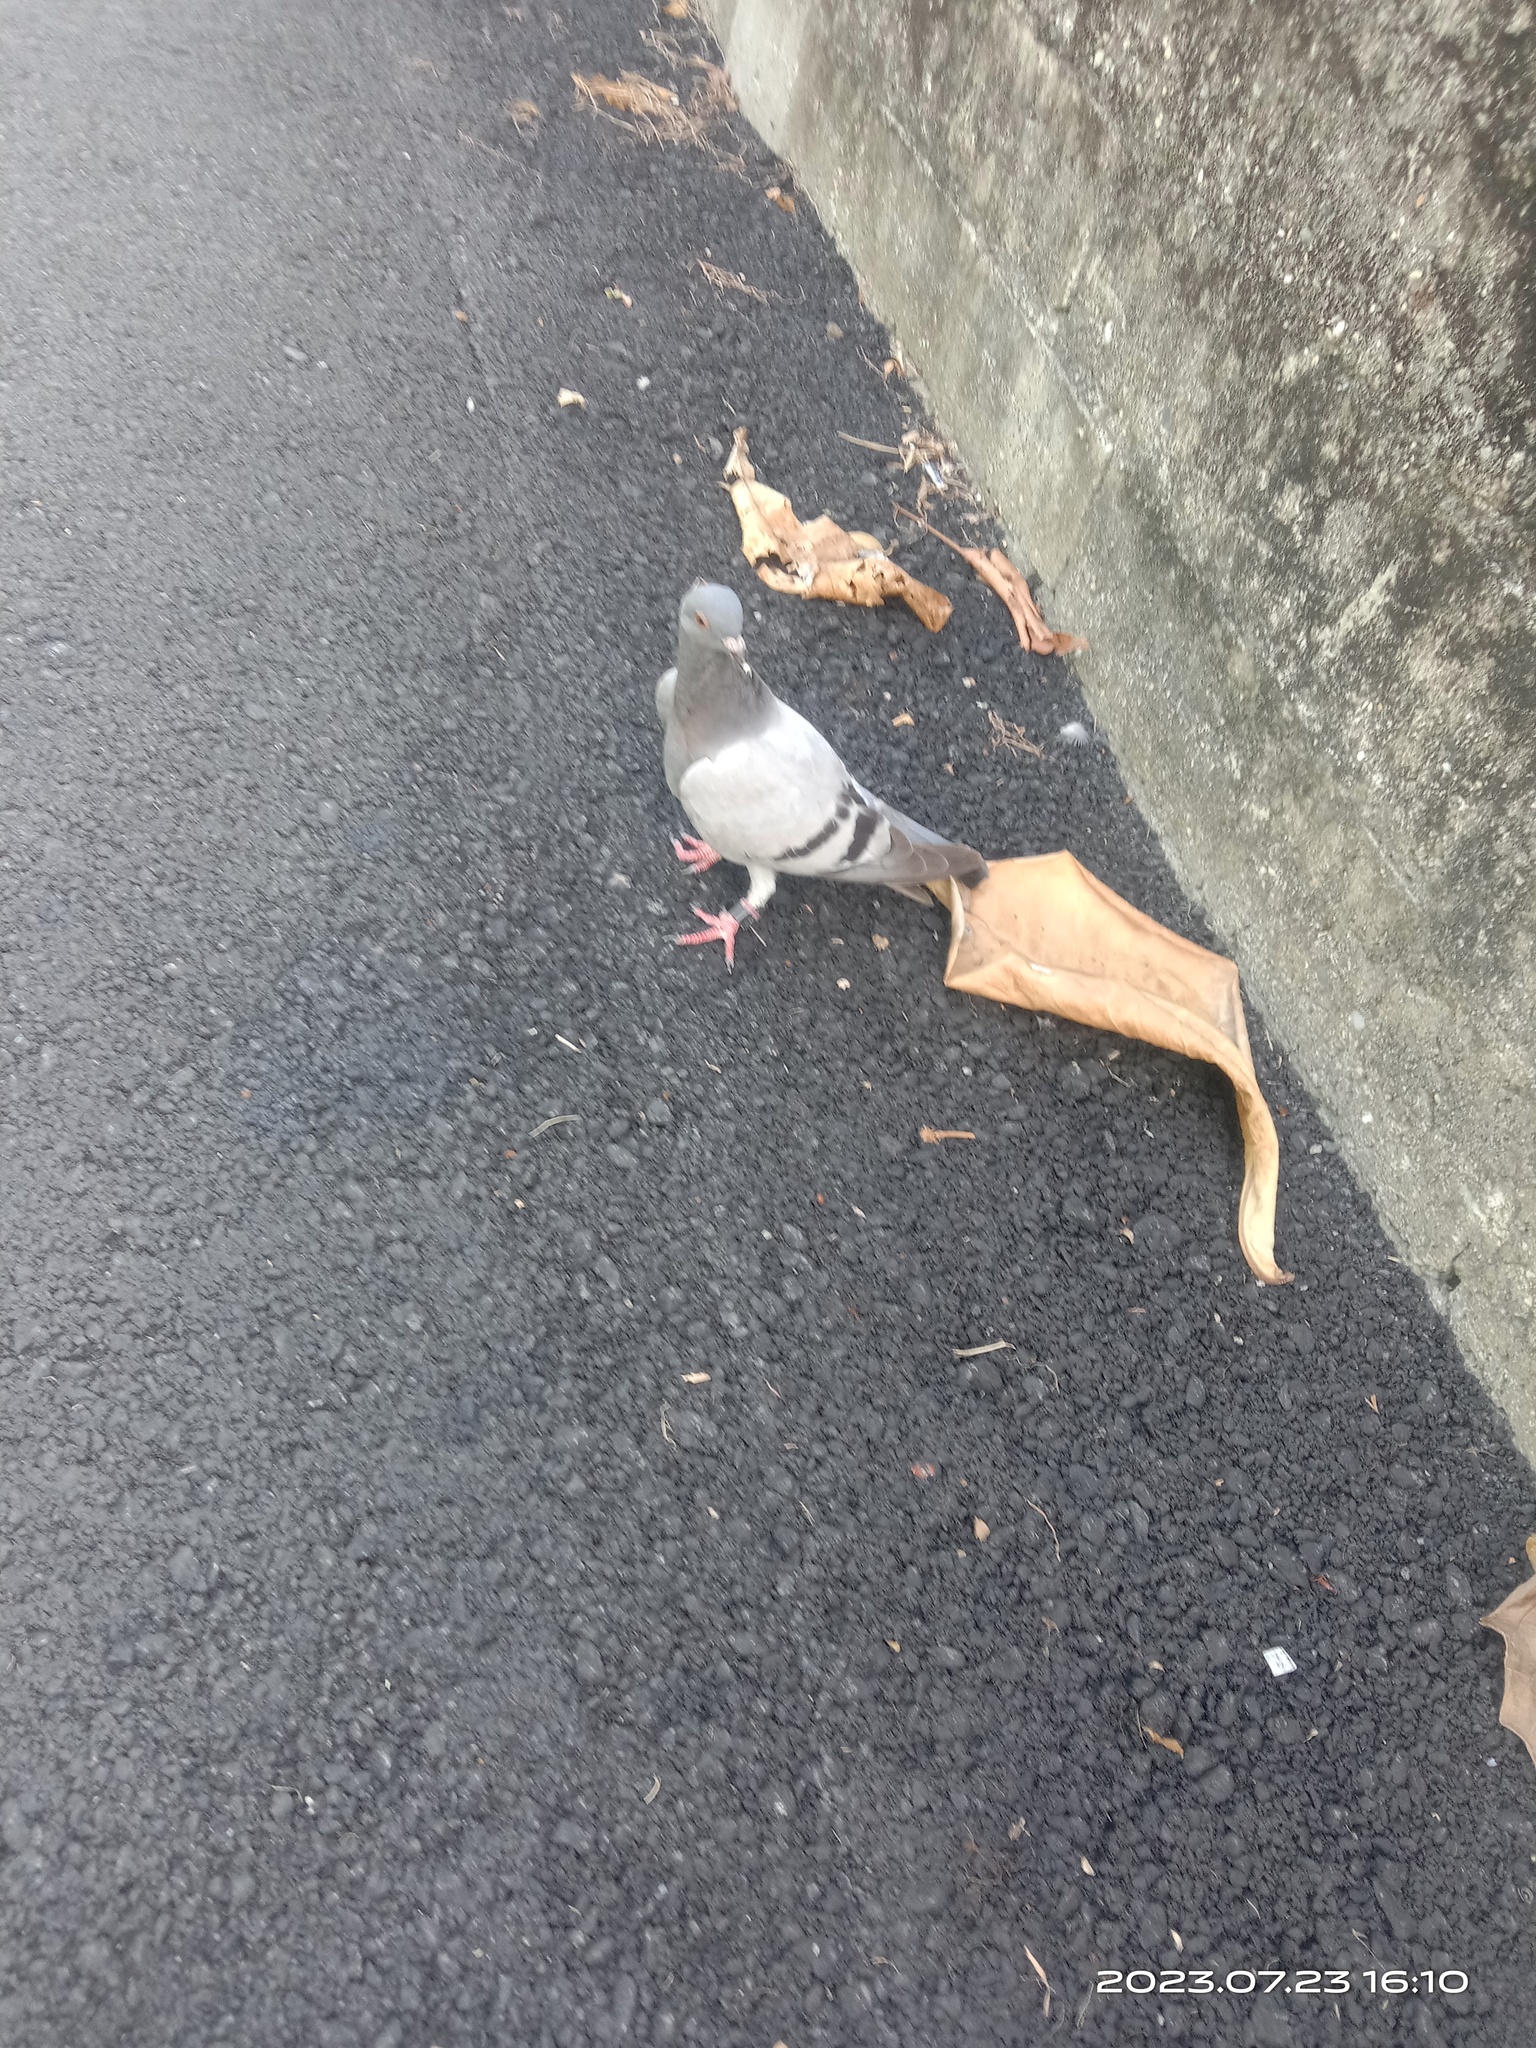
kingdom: Animalia
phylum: Chordata
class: Aves
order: Columbiformes
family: Columbidae
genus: Columba
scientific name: Columba livia
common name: Rock pigeon
